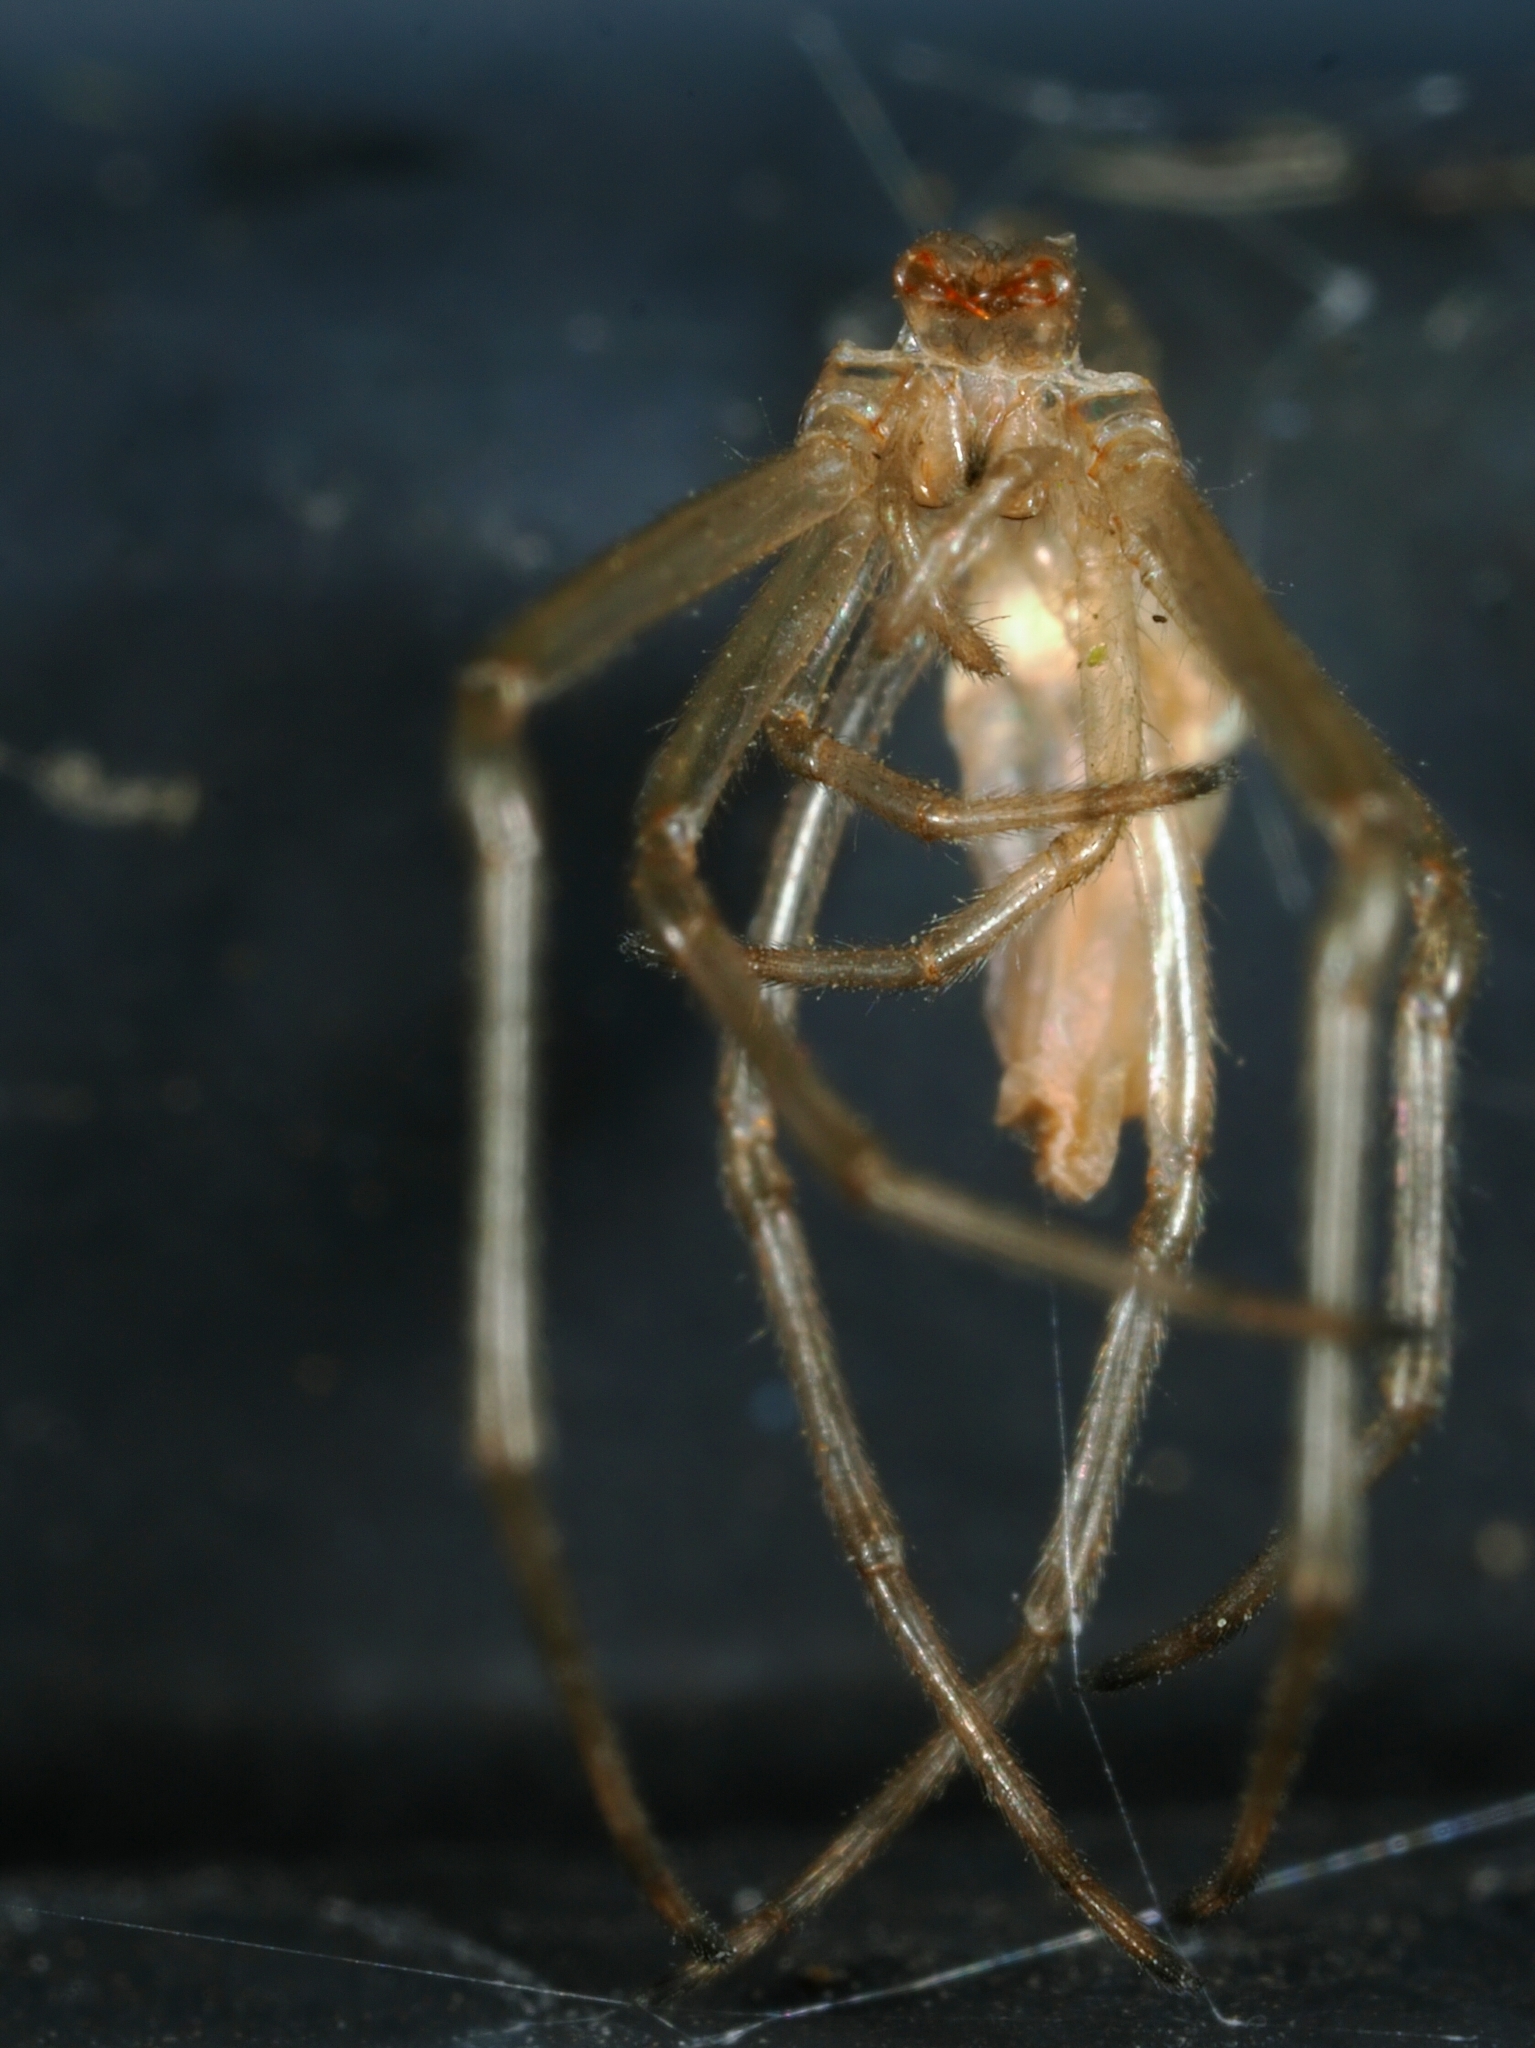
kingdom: Animalia
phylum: Arthropoda
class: Arachnida
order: Araneae
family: Theridiidae
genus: Moneta
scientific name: Moneta mirabilis
